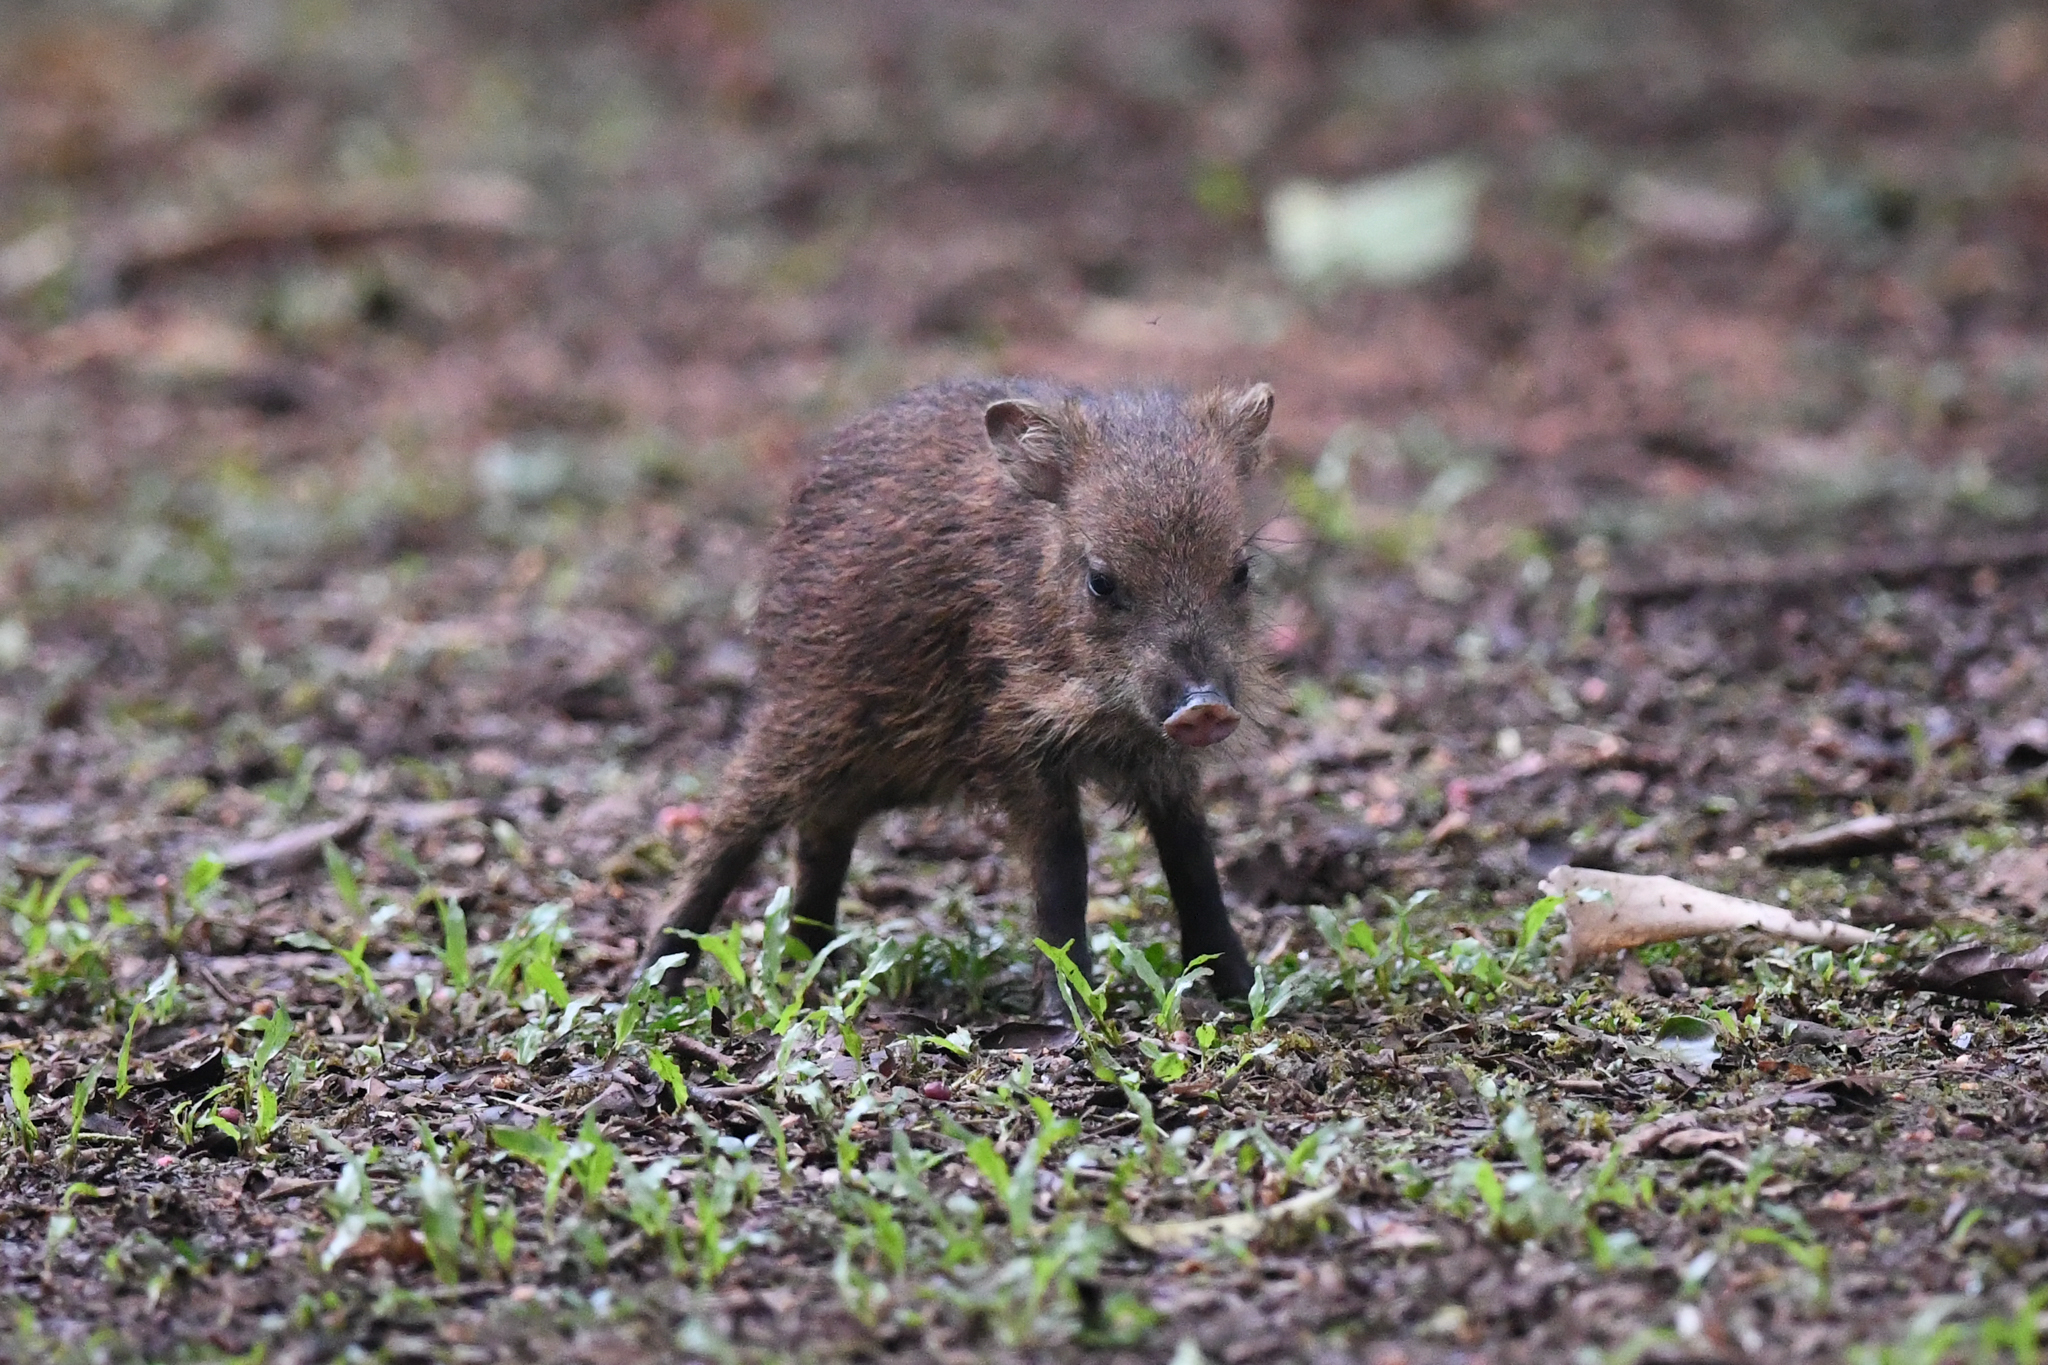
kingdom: Animalia
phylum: Chordata
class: Mammalia
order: Artiodactyla
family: Tayassuidae
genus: Pecari
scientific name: Pecari tajacu
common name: Collared peccary
